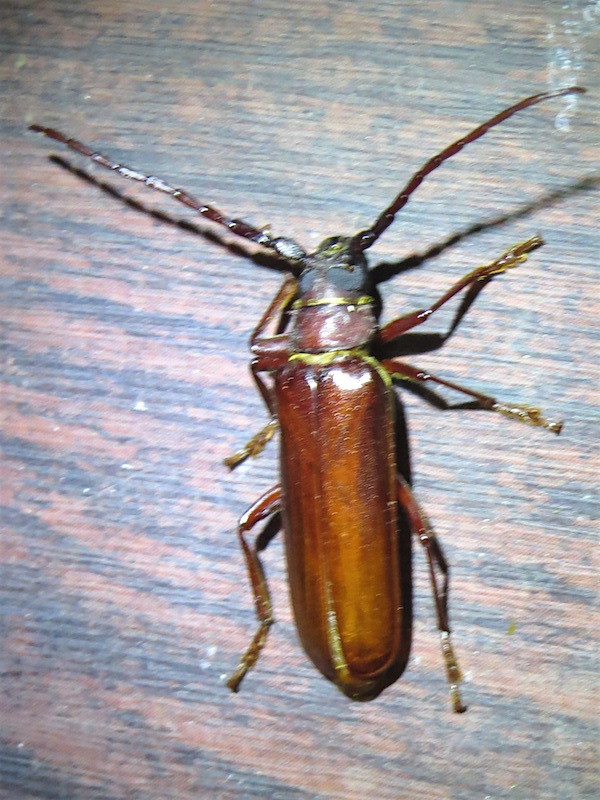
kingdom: Animalia
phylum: Arthropoda
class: Insecta
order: Coleoptera
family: Cerambycidae
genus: Orthosoma
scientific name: Orthosoma brunneum
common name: Brown prionid beetle
